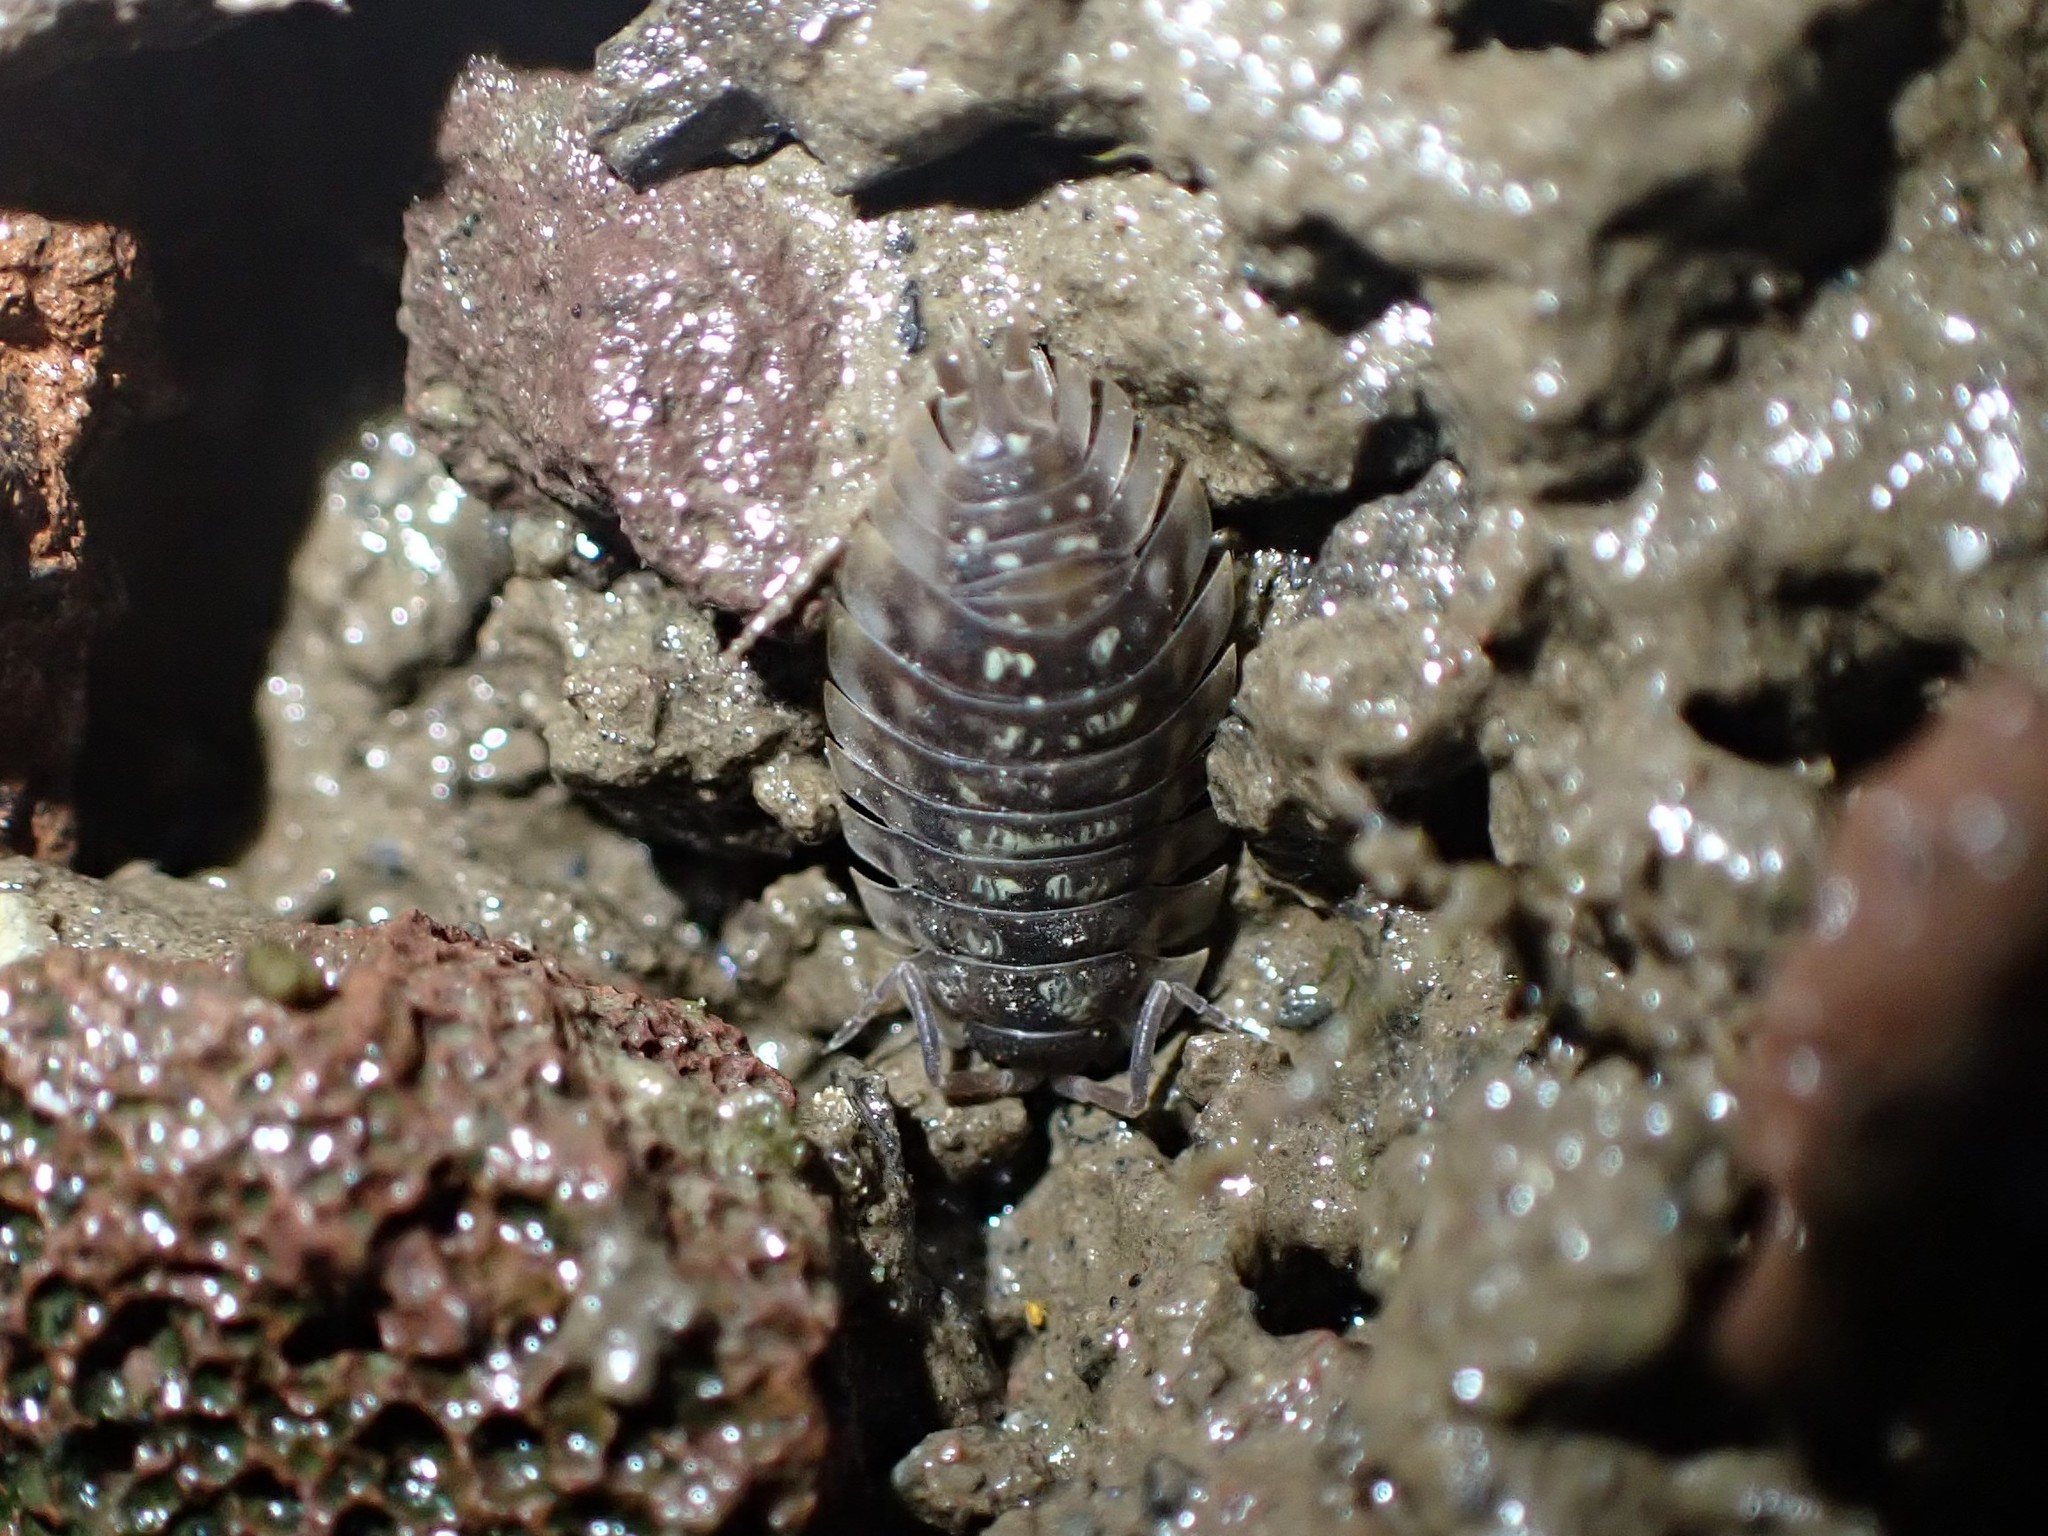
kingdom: Animalia
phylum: Arthropoda
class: Malacostraca
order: Isopoda
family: Oniscidae
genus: Oniscus
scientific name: Oniscus asellus
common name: Common shiny woodlouse
